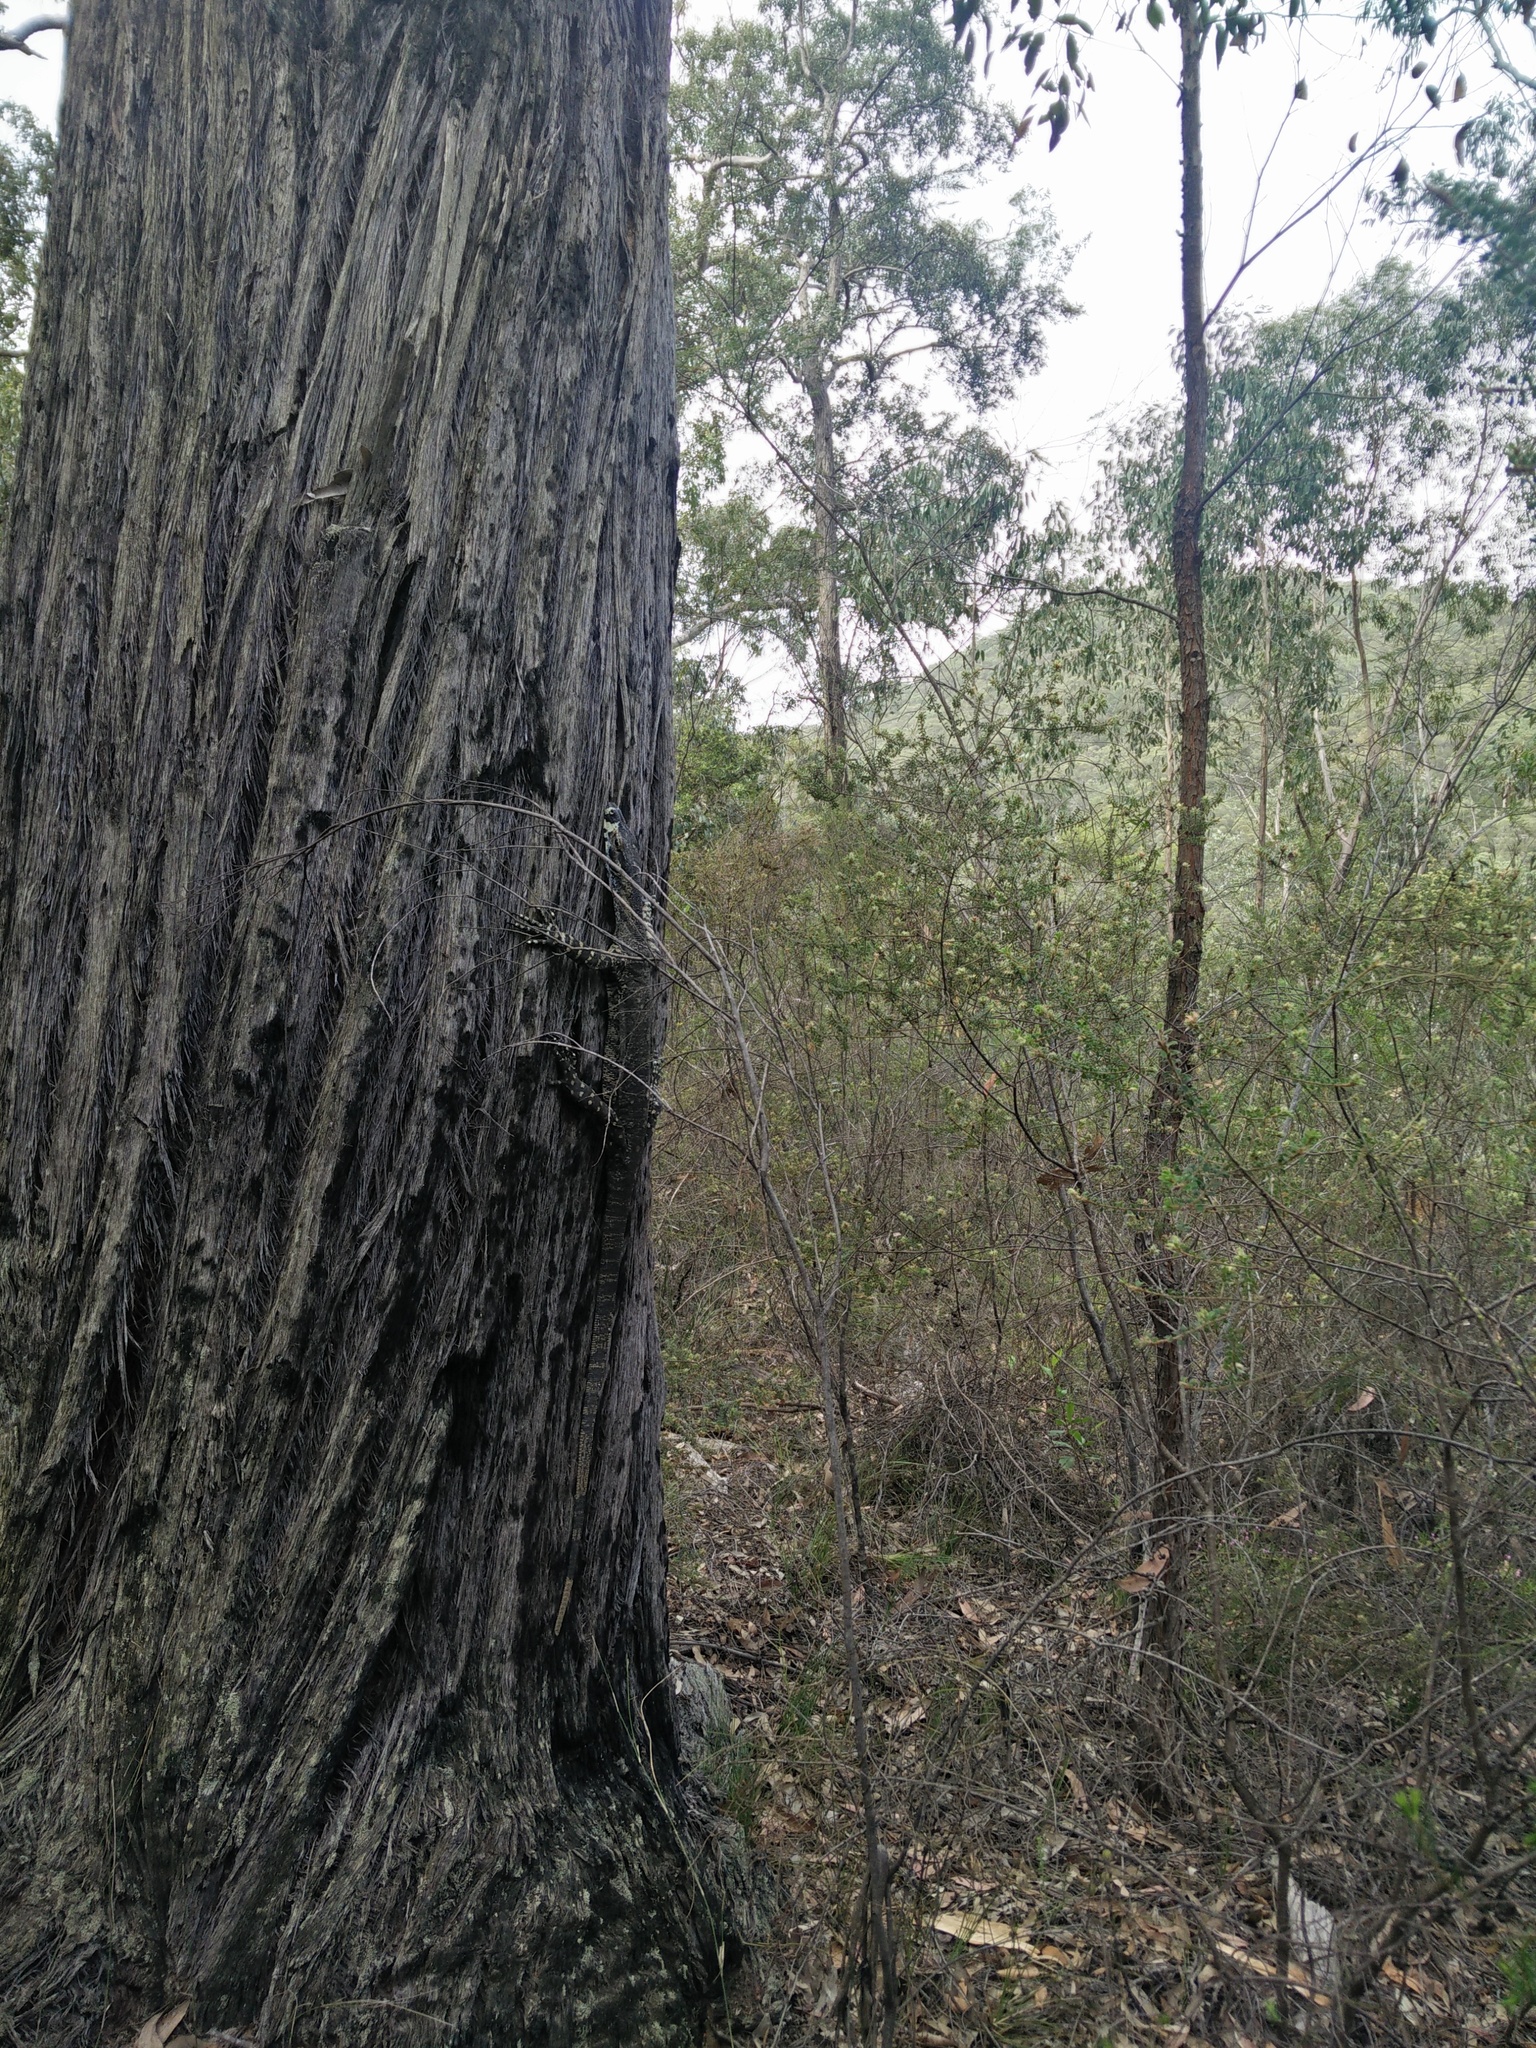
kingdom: Animalia
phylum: Chordata
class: Squamata
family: Varanidae
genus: Varanus
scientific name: Varanus varius
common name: Lace monitor
